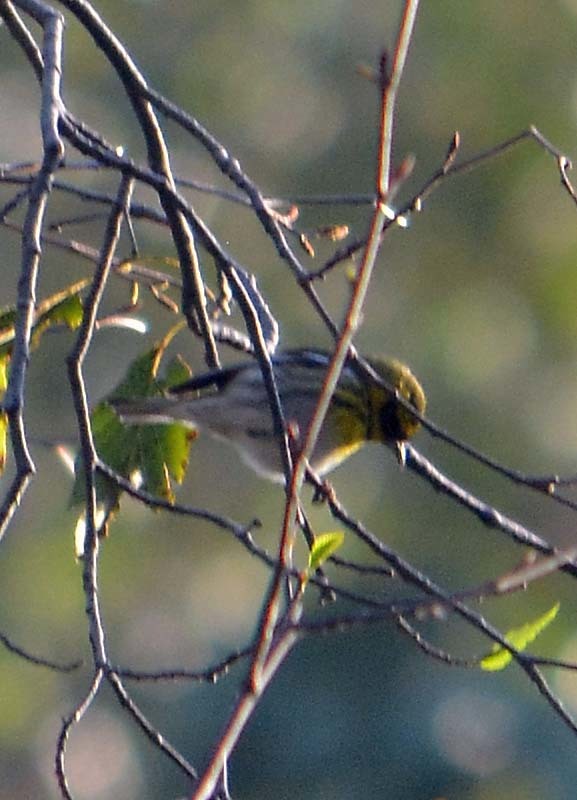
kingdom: Animalia
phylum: Chordata
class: Aves
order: Passeriformes
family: Parulidae
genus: Setophaga
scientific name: Setophaga townsendi
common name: Townsend's warbler
